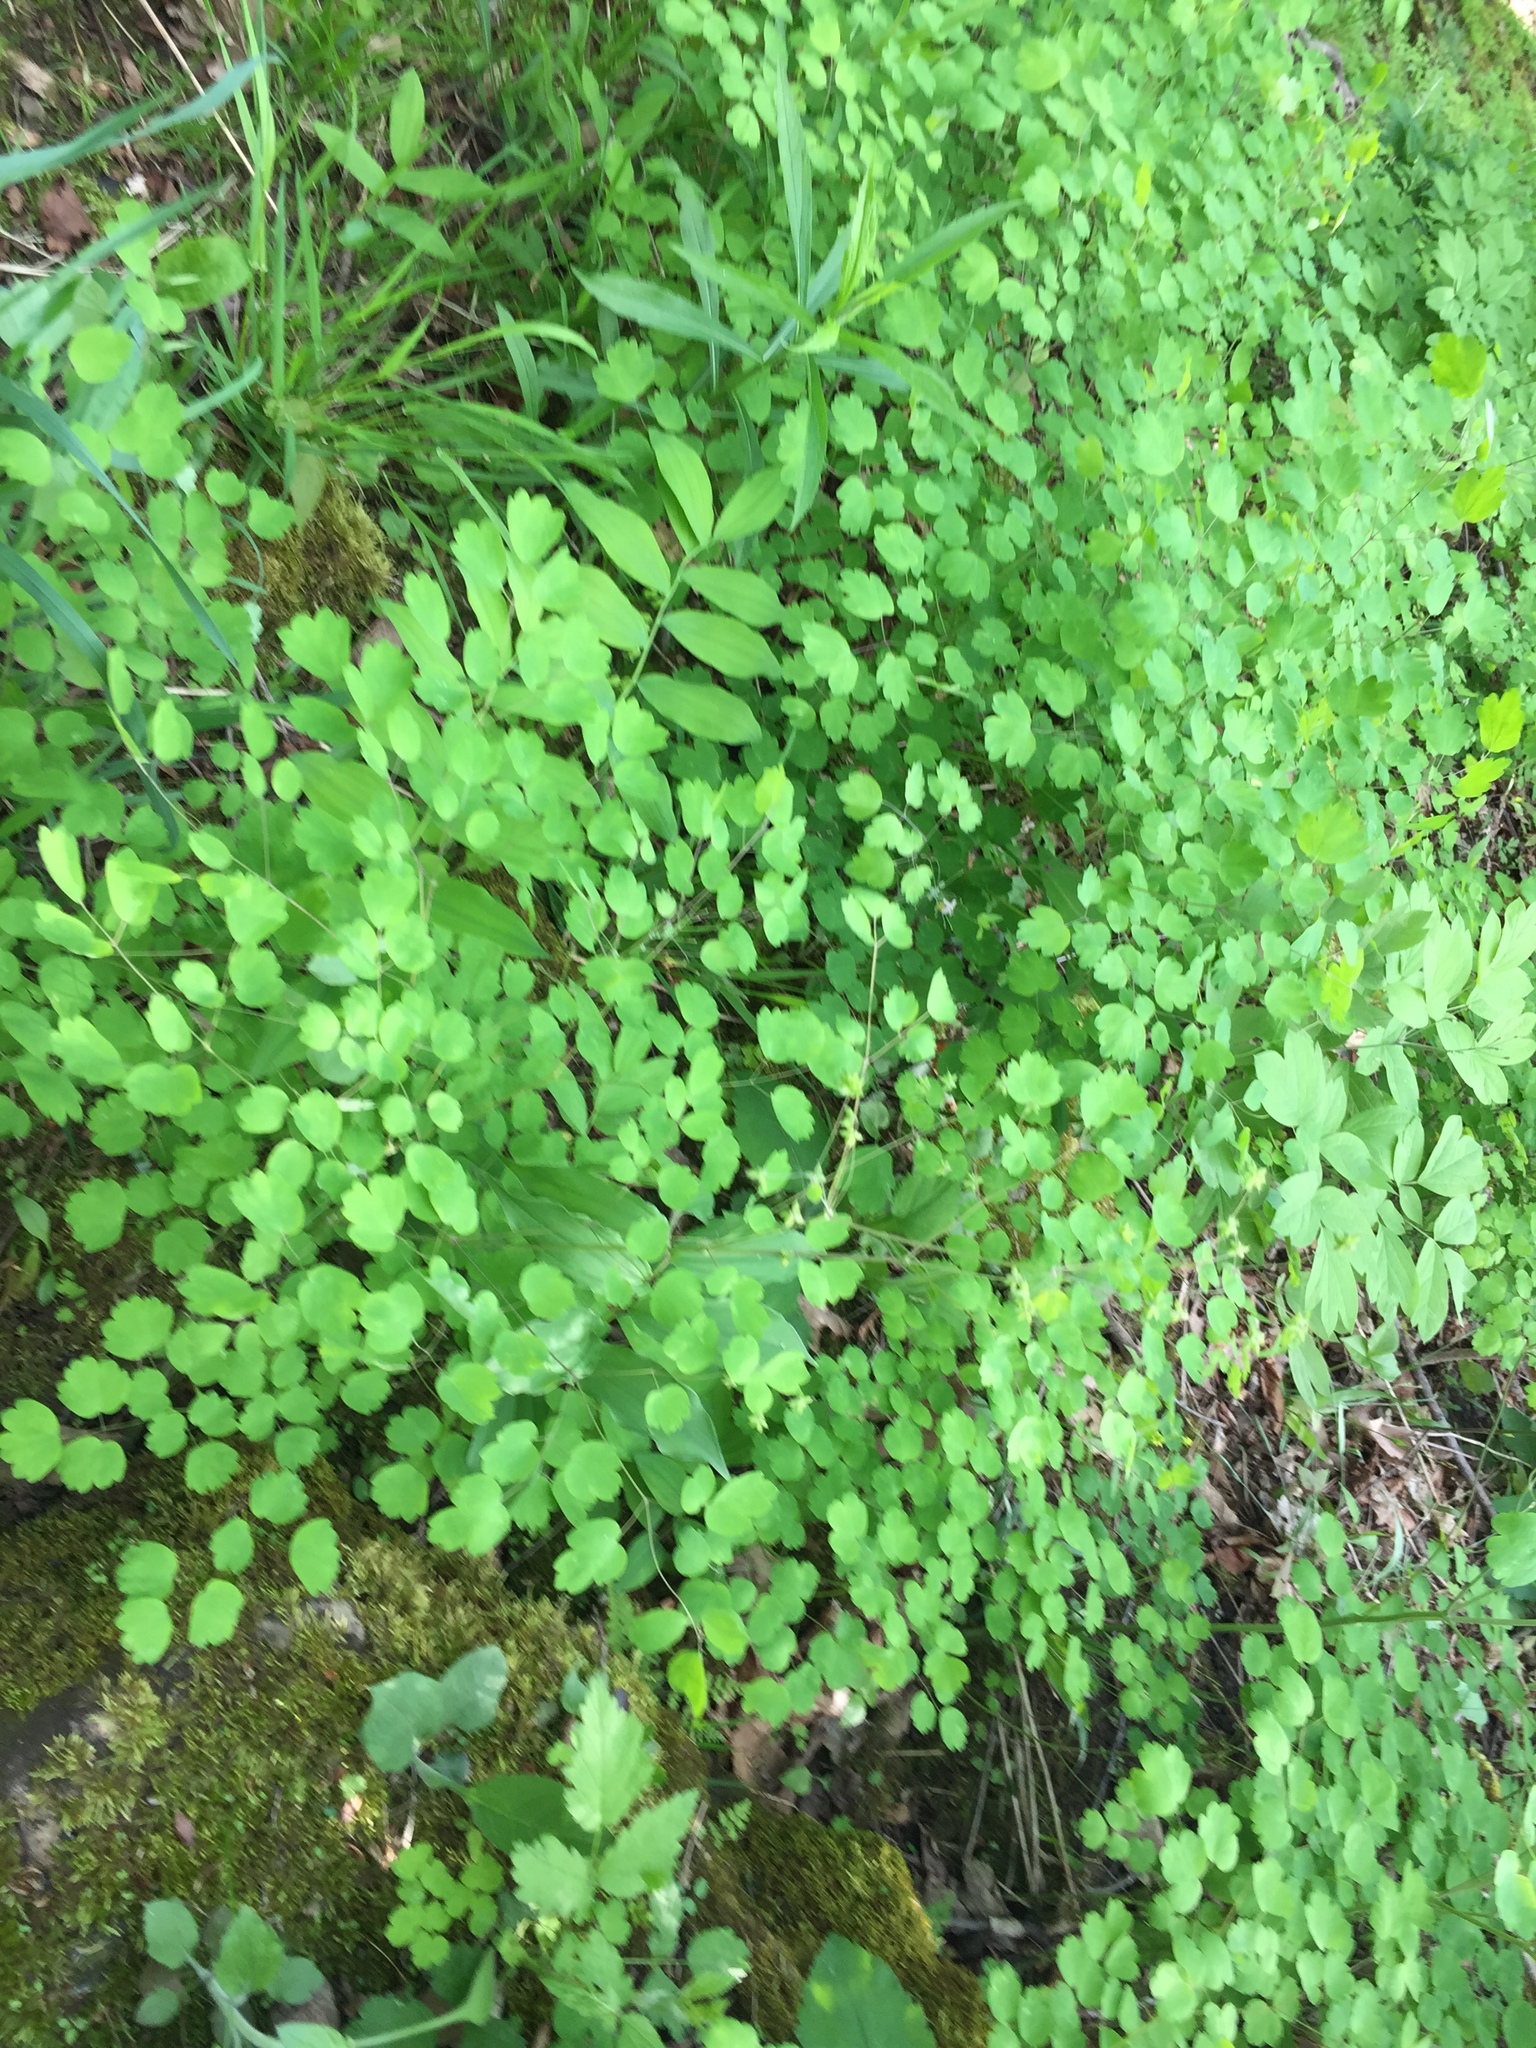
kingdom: Plantae
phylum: Tracheophyta
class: Magnoliopsida
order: Ranunculales
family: Ranunculaceae
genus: Thalictrum
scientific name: Thalictrum dioicum
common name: Early meadow-rue
